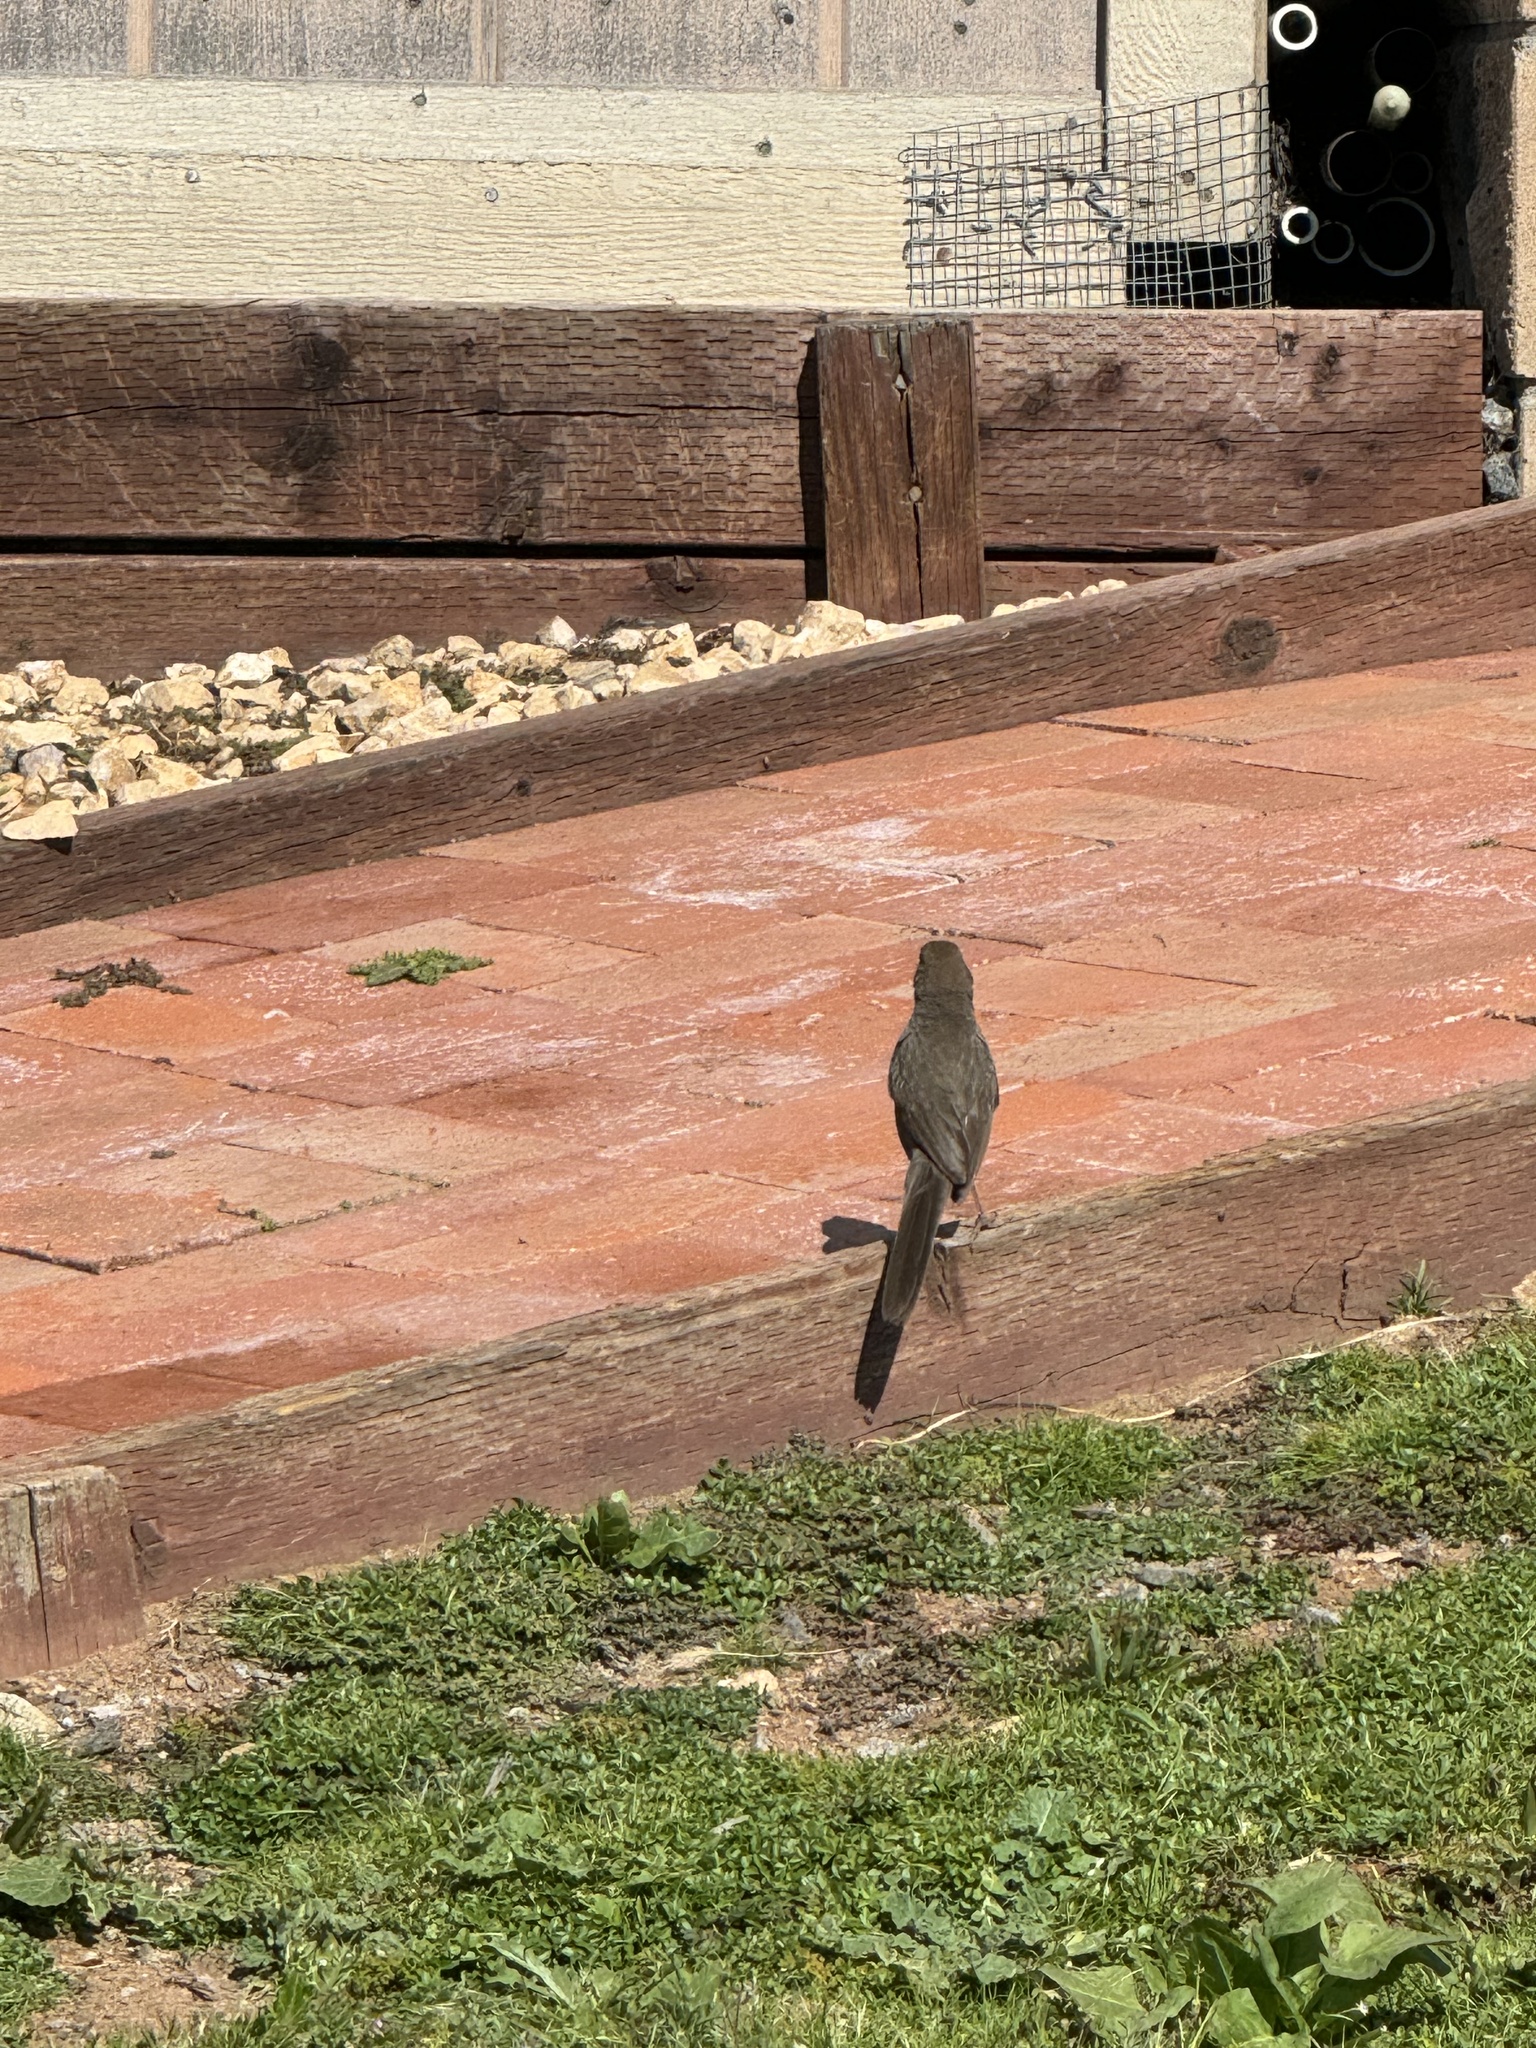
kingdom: Animalia
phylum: Chordata
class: Aves
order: Passeriformes
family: Passerellidae
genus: Melozone
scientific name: Melozone crissalis
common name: California towhee
